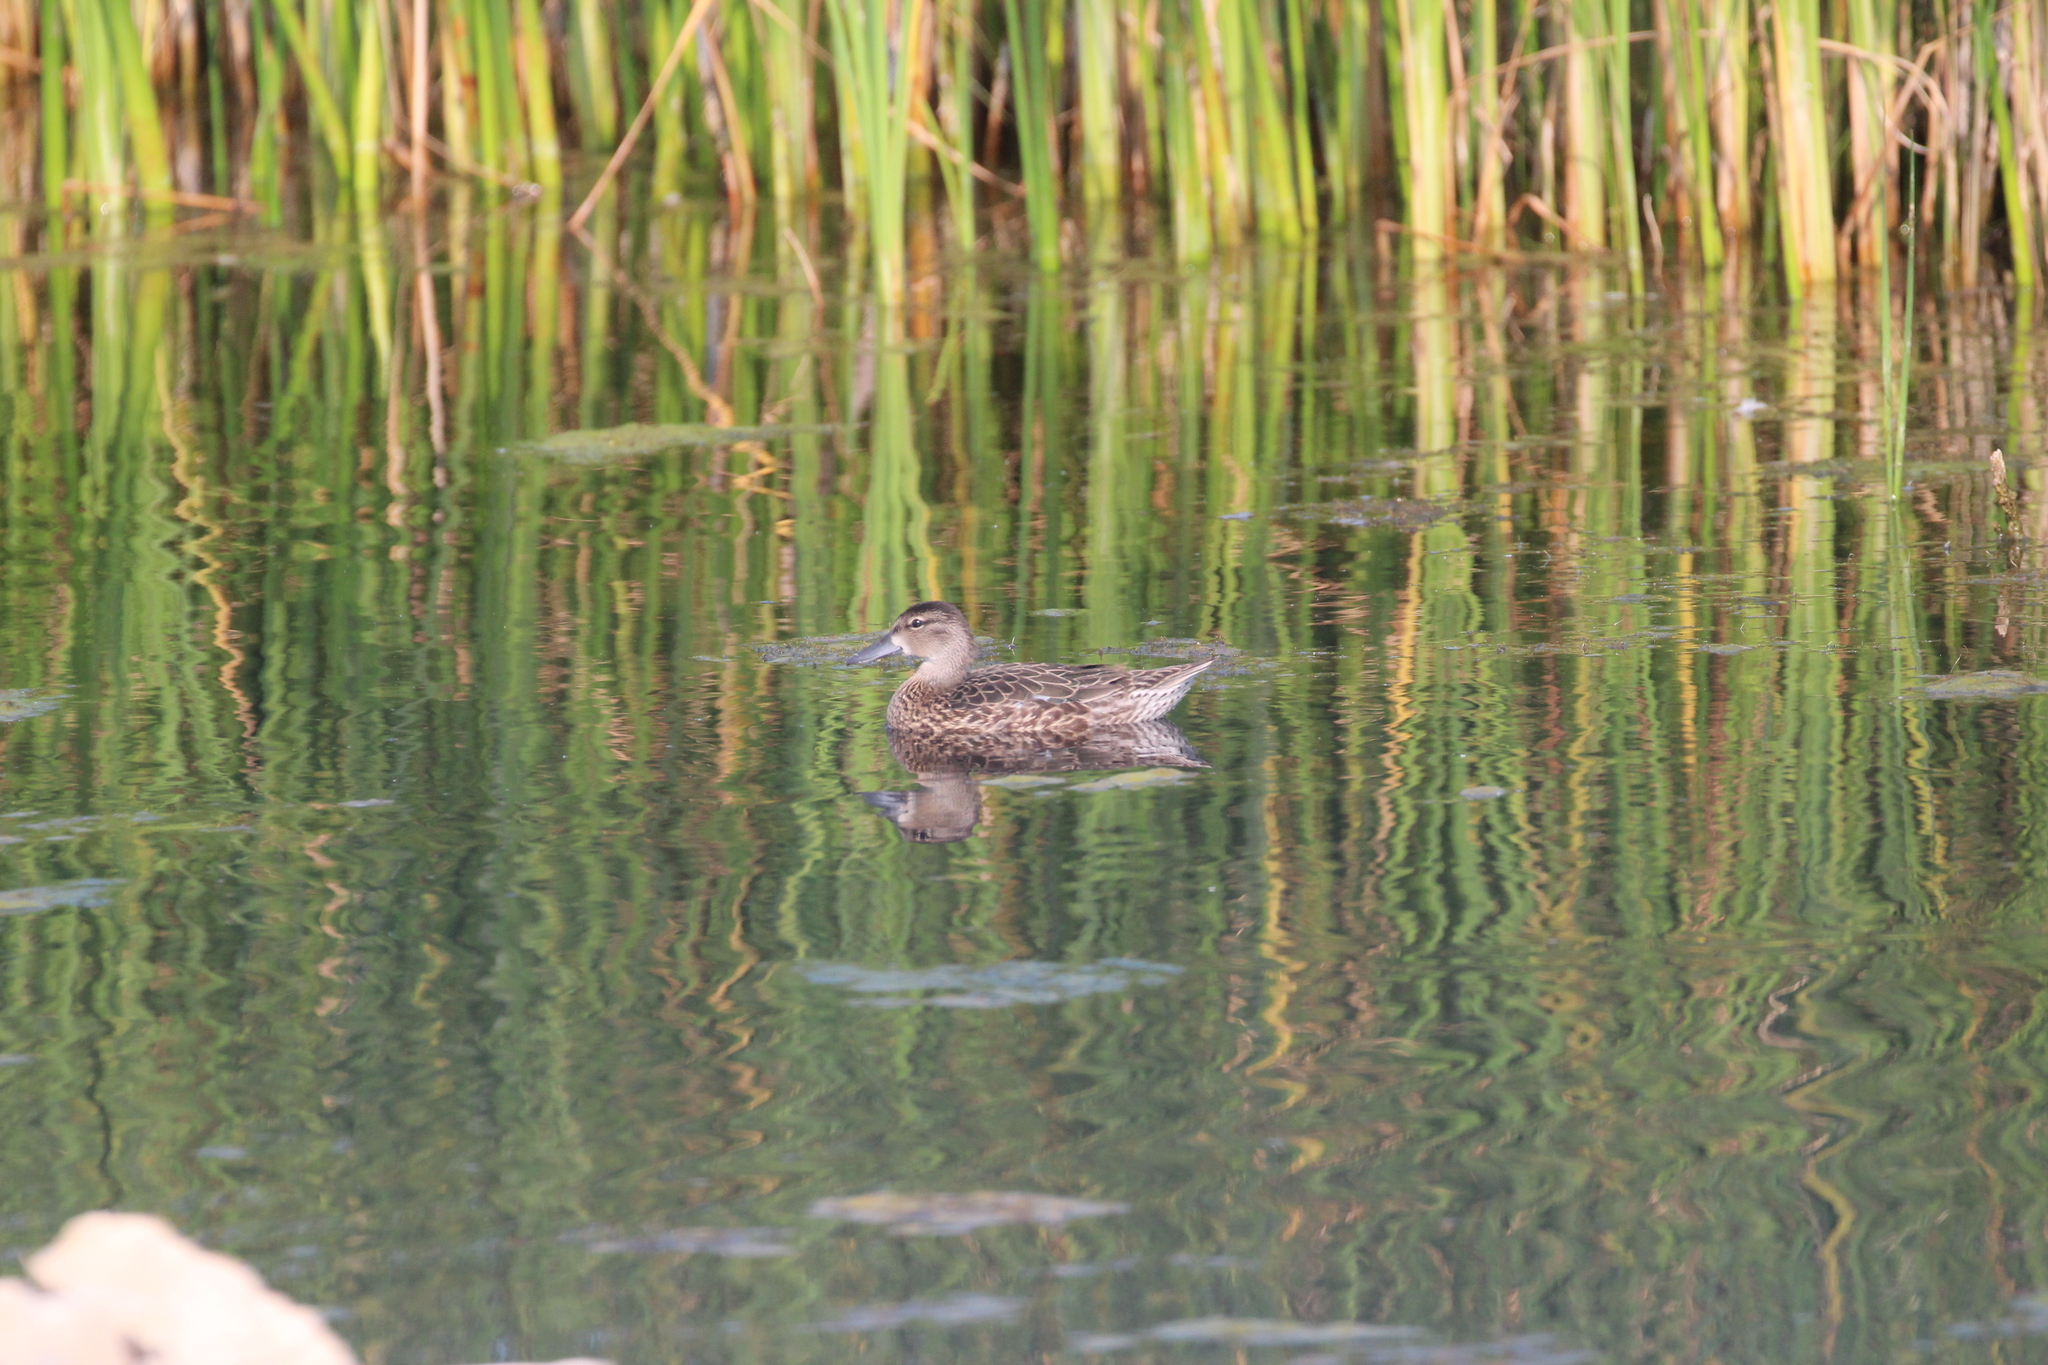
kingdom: Animalia
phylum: Chordata
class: Aves
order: Anseriformes
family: Anatidae
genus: Spatula
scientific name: Spatula discors
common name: Blue-winged teal
